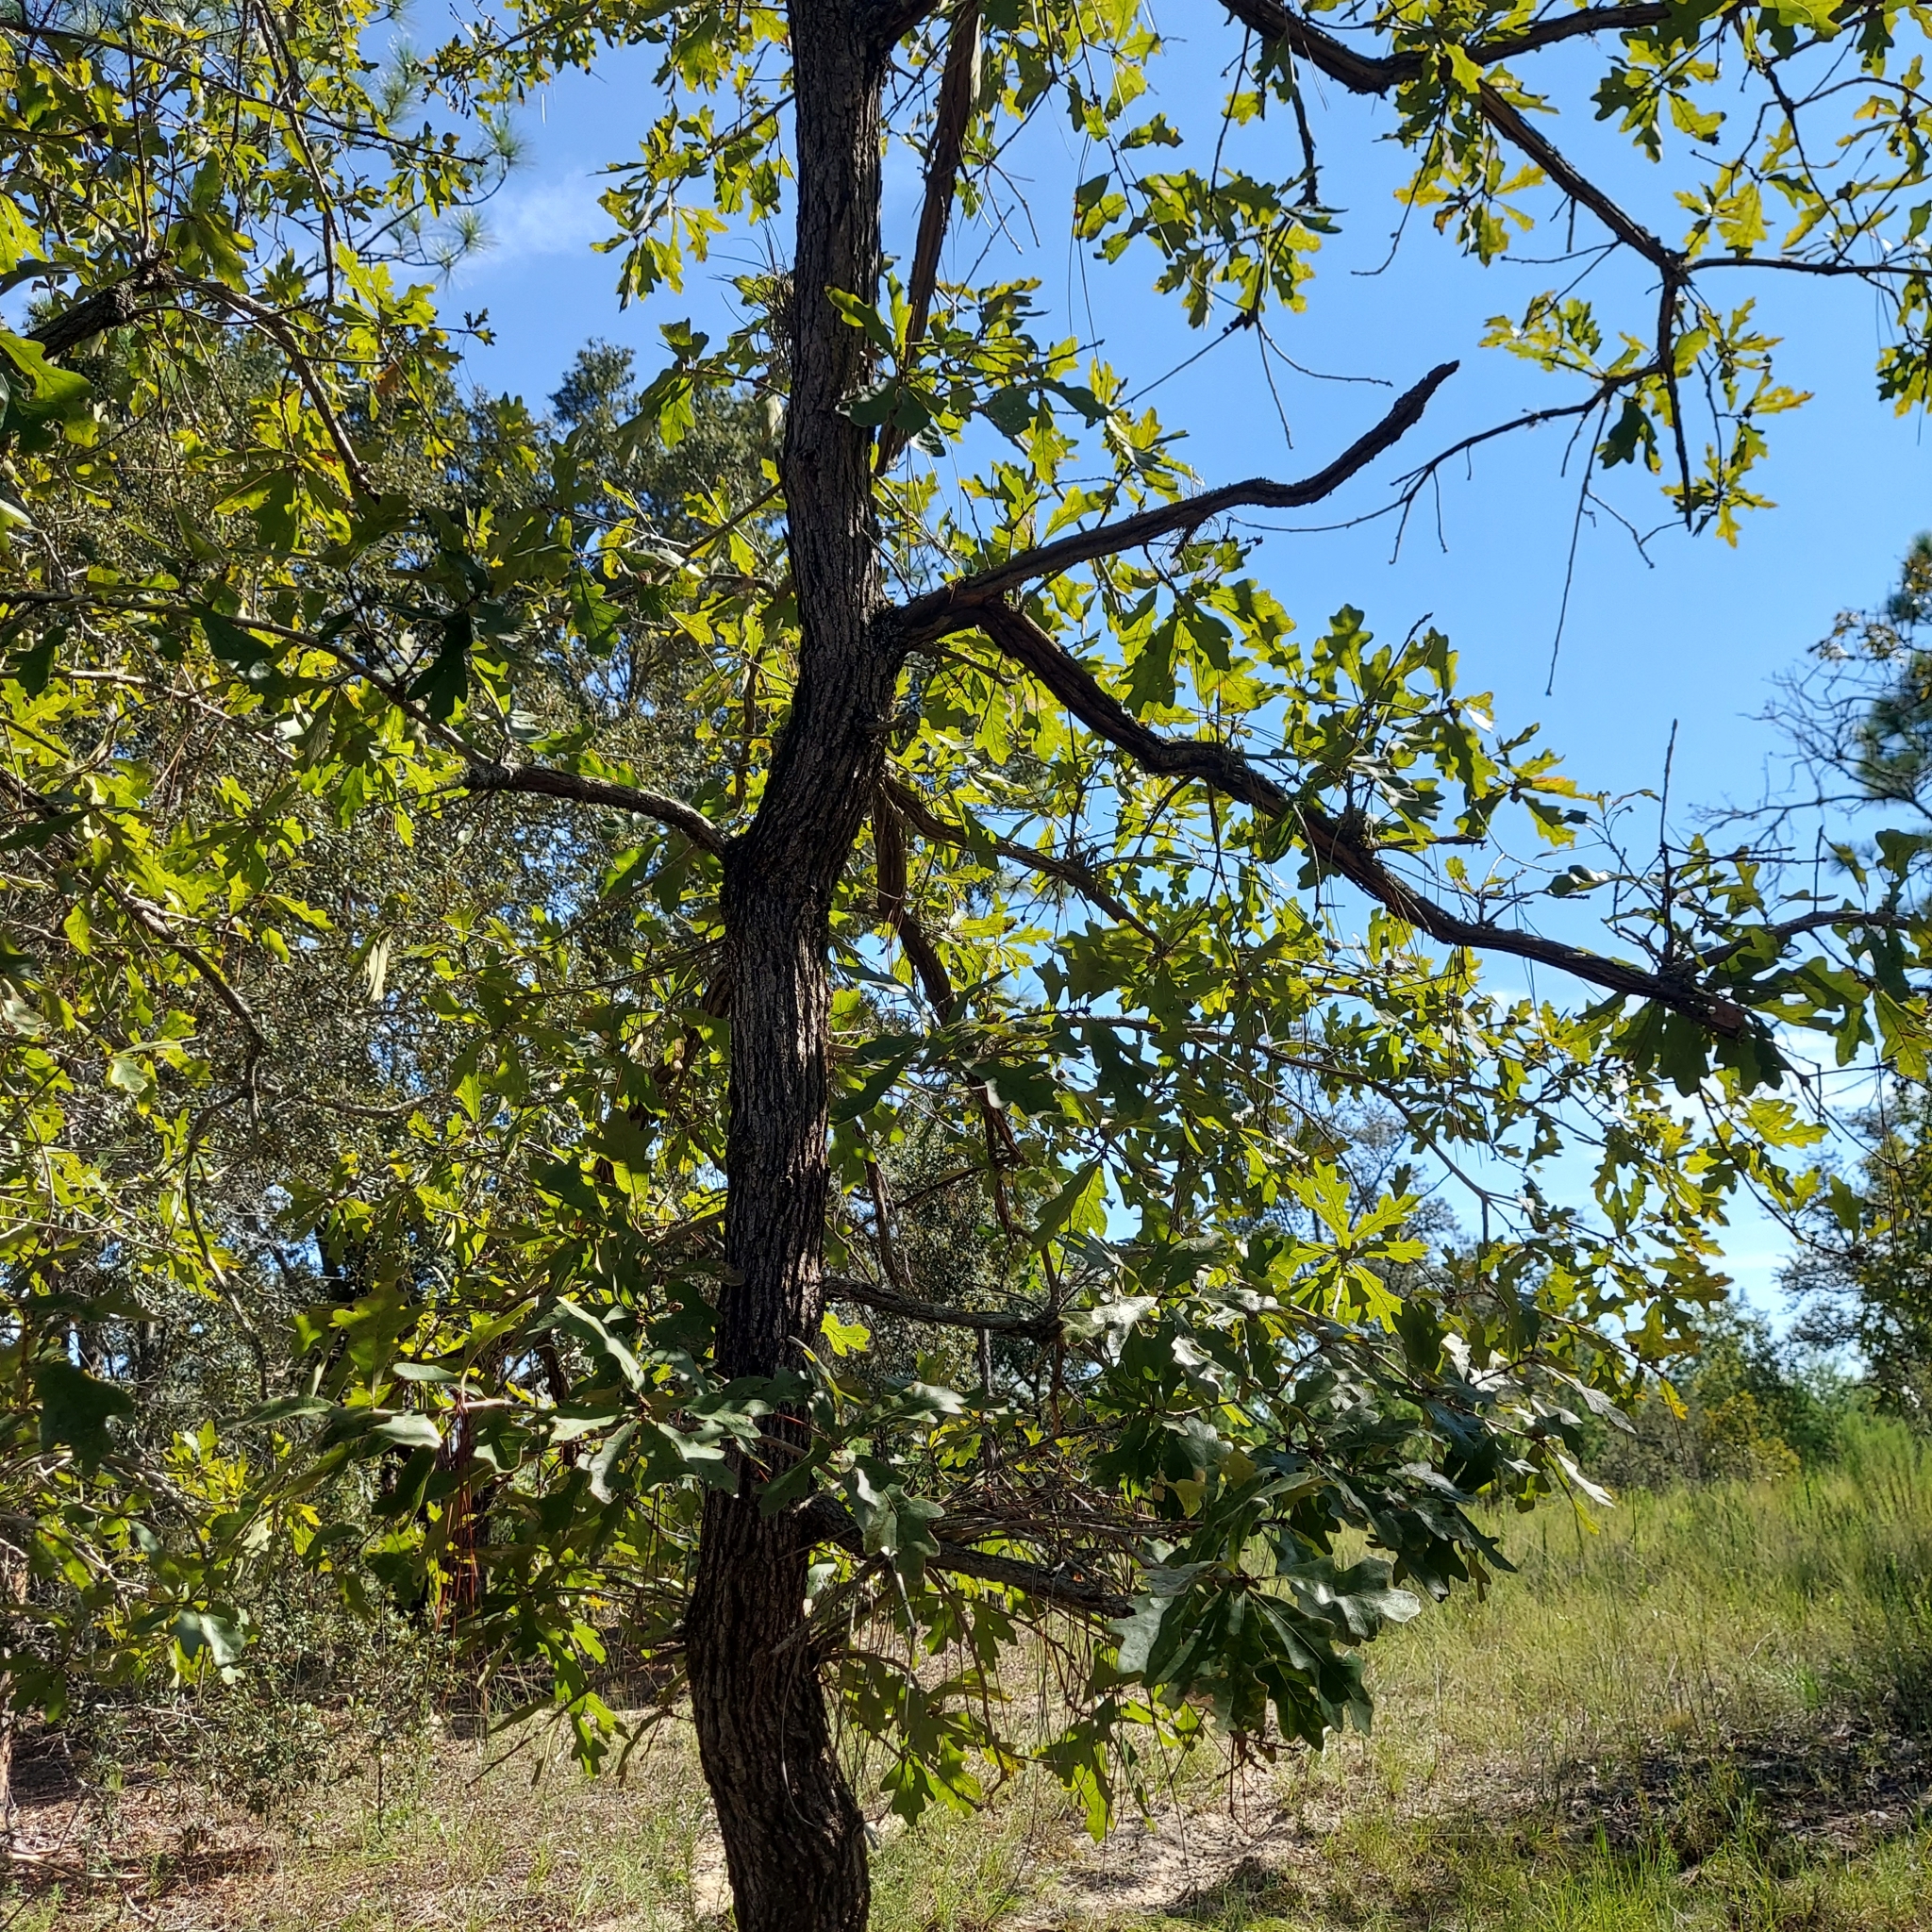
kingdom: Plantae
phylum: Tracheophyta
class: Magnoliopsida
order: Fagales
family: Fagaceae
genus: Quercus
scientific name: Quercus margaretiae
